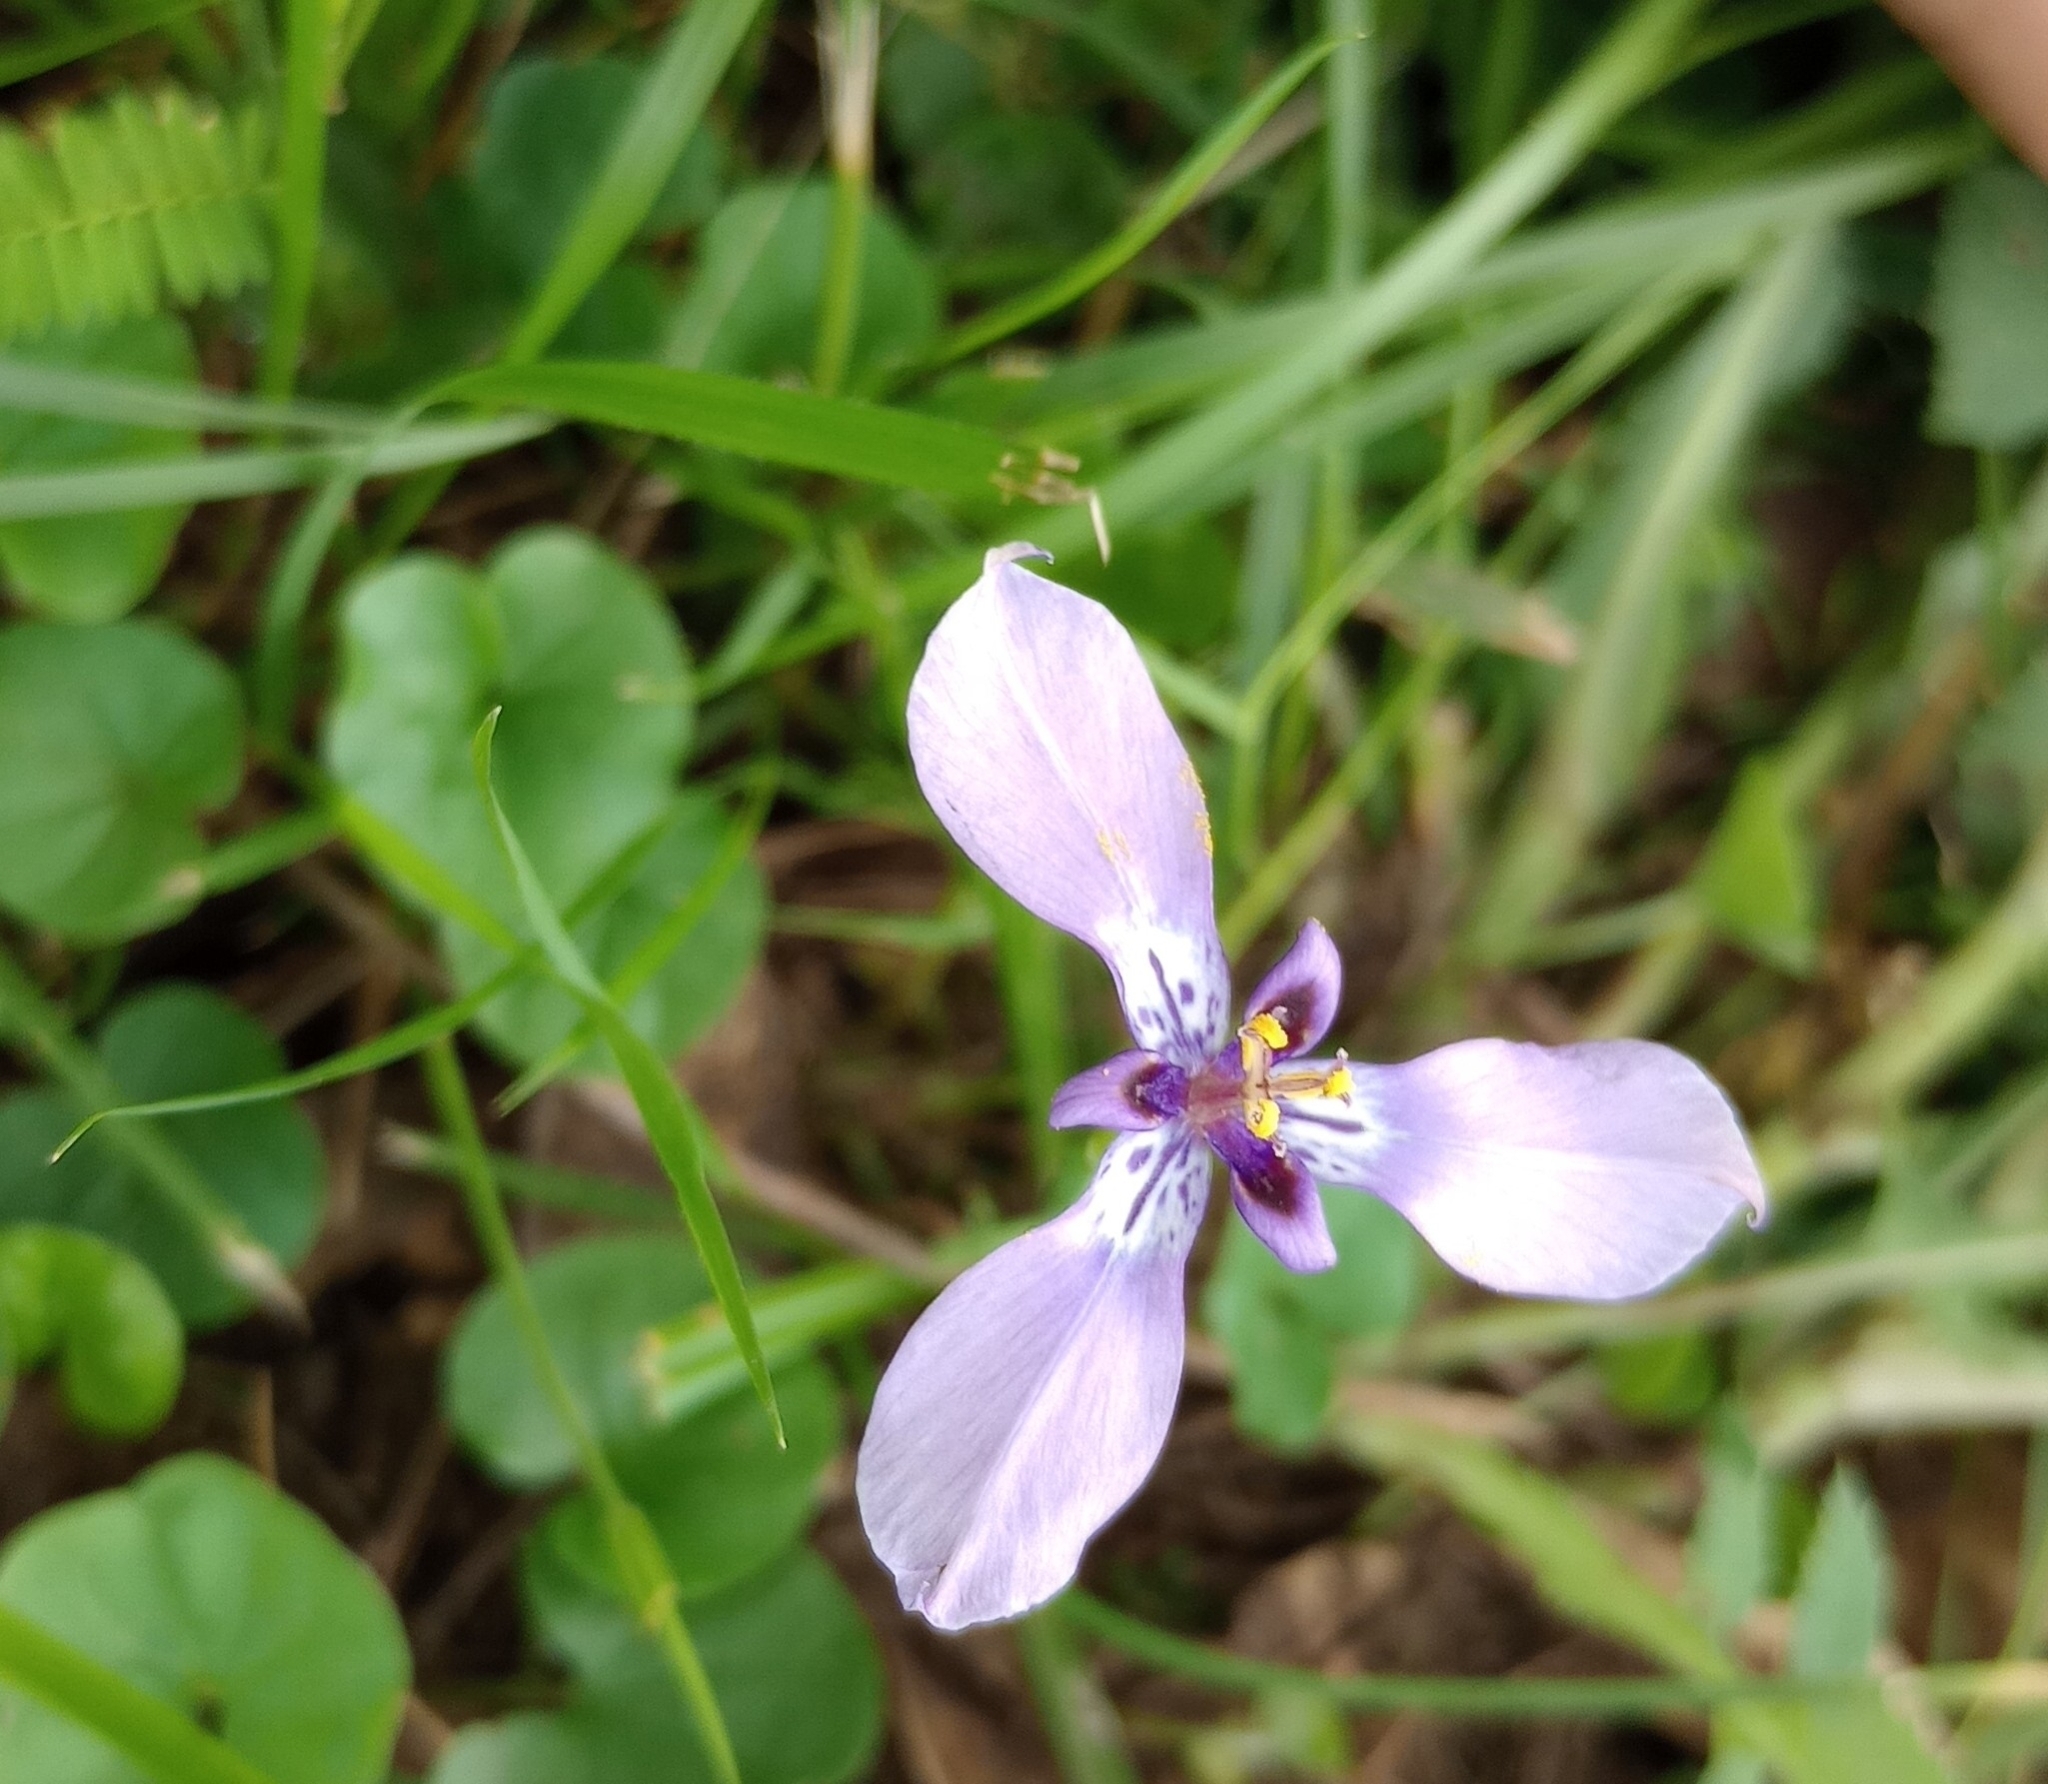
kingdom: Plantae
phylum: Tracheophyta
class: Liliopsida
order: Asparagales
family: Iridaceae
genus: Herbertia
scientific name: Herbertia lahue
